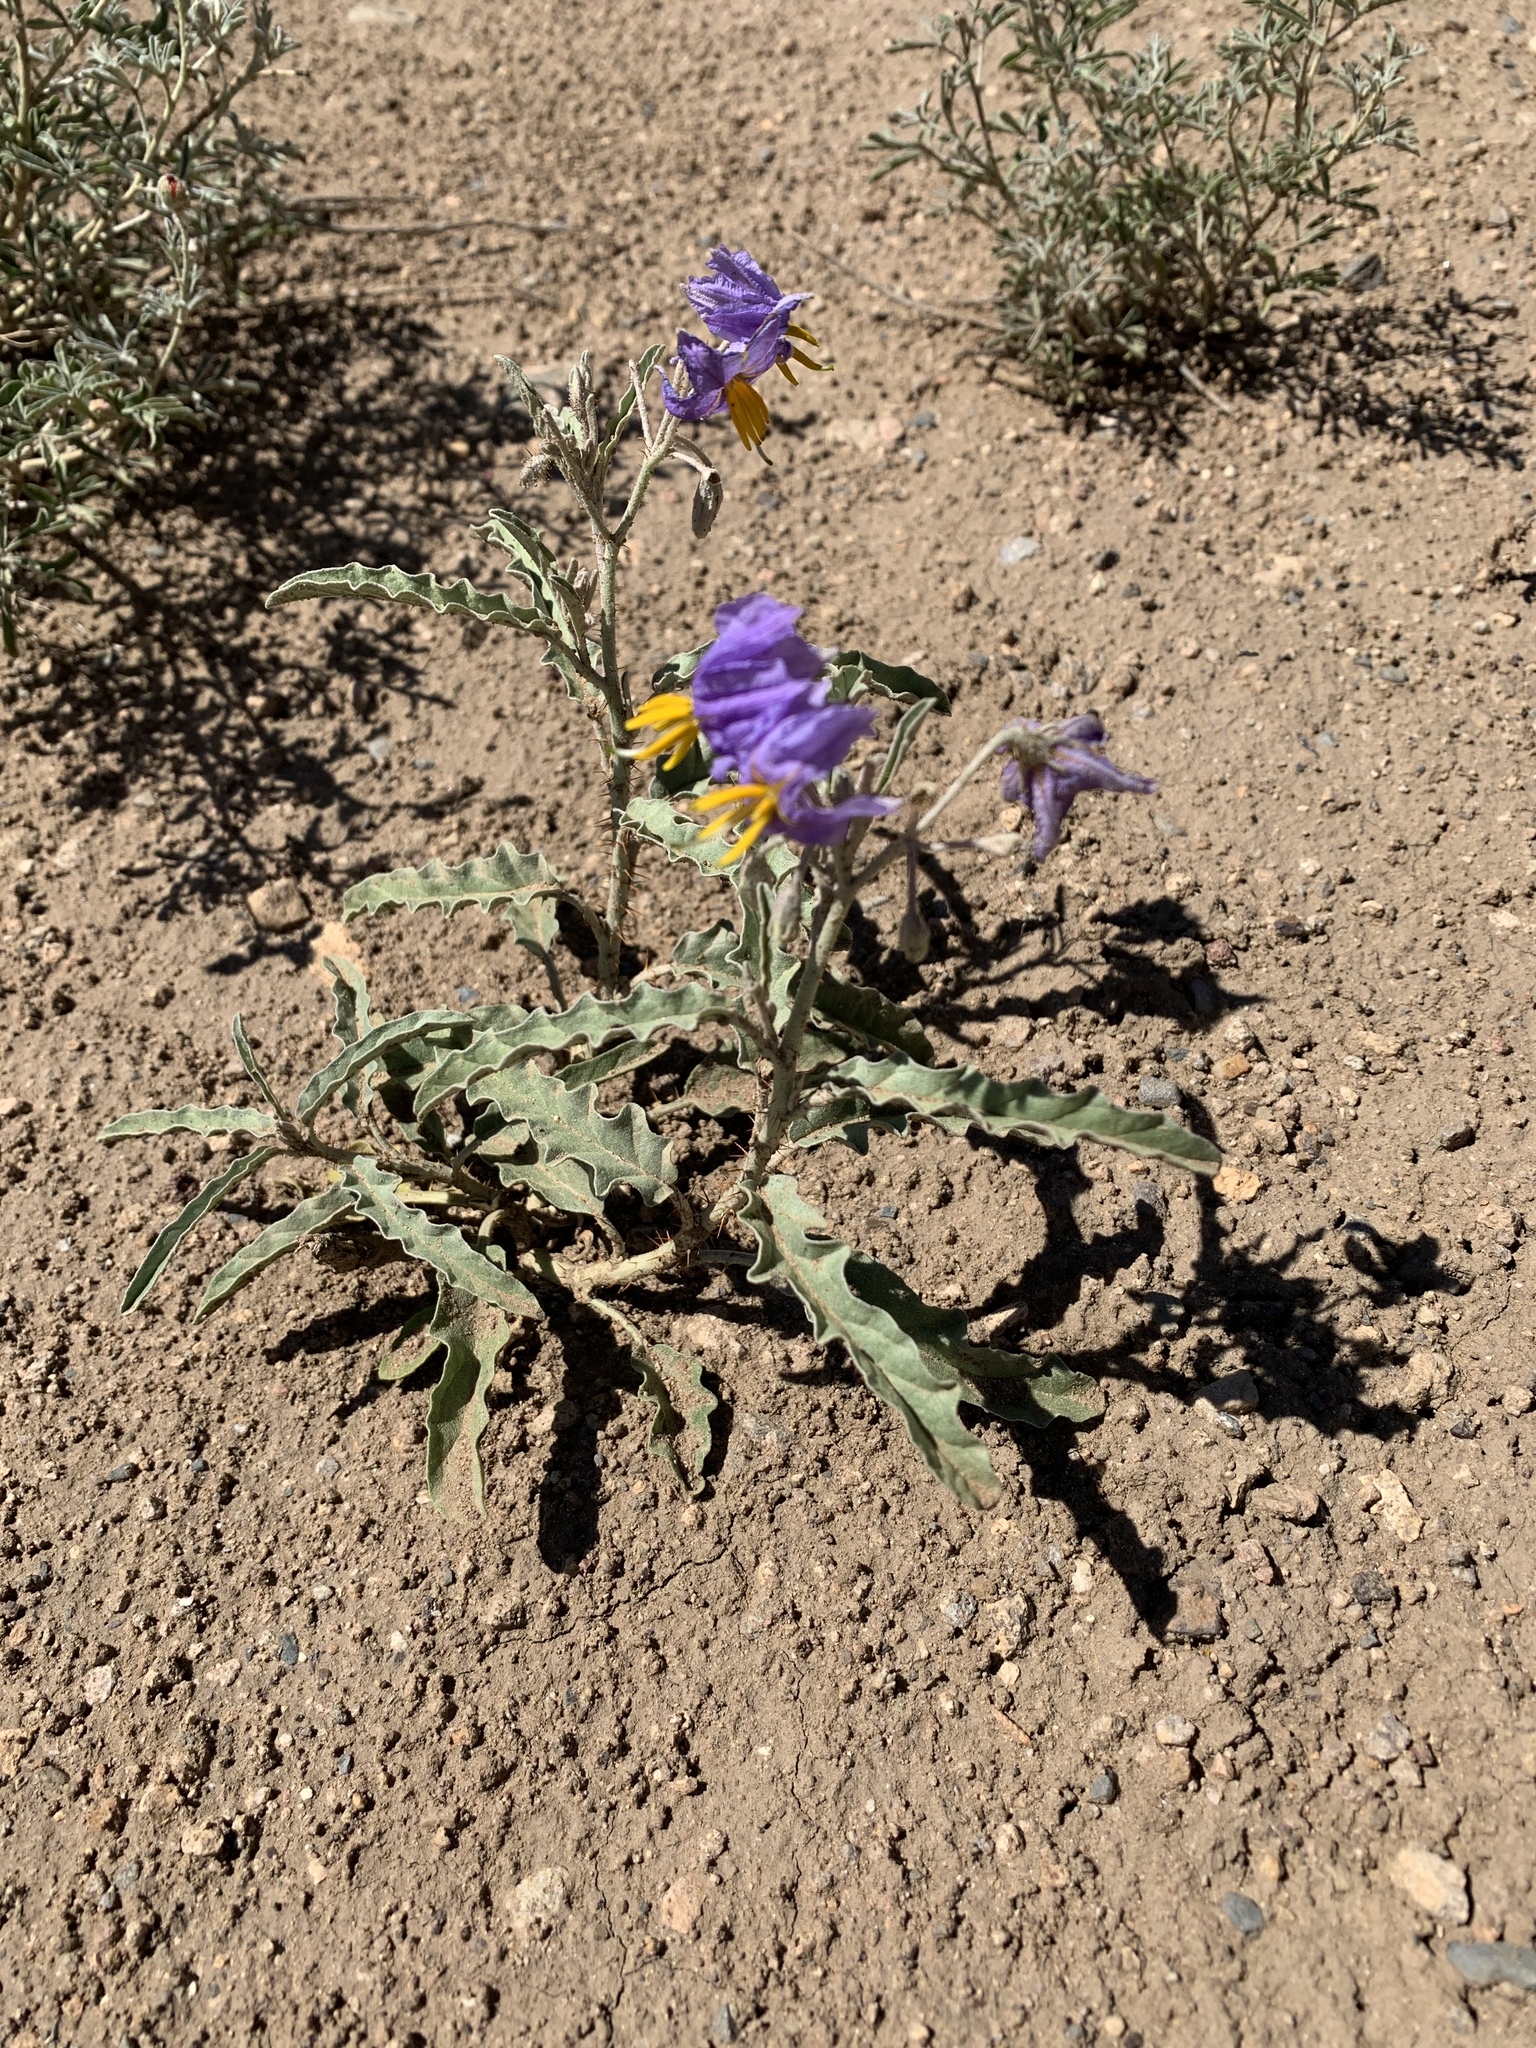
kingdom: Plantae
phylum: Tracheophyta
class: Magnoliopsida
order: Solanales
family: Solanaceae
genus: Solanum
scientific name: Solanum elaeagnifolium
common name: Silverleaf nightshade
